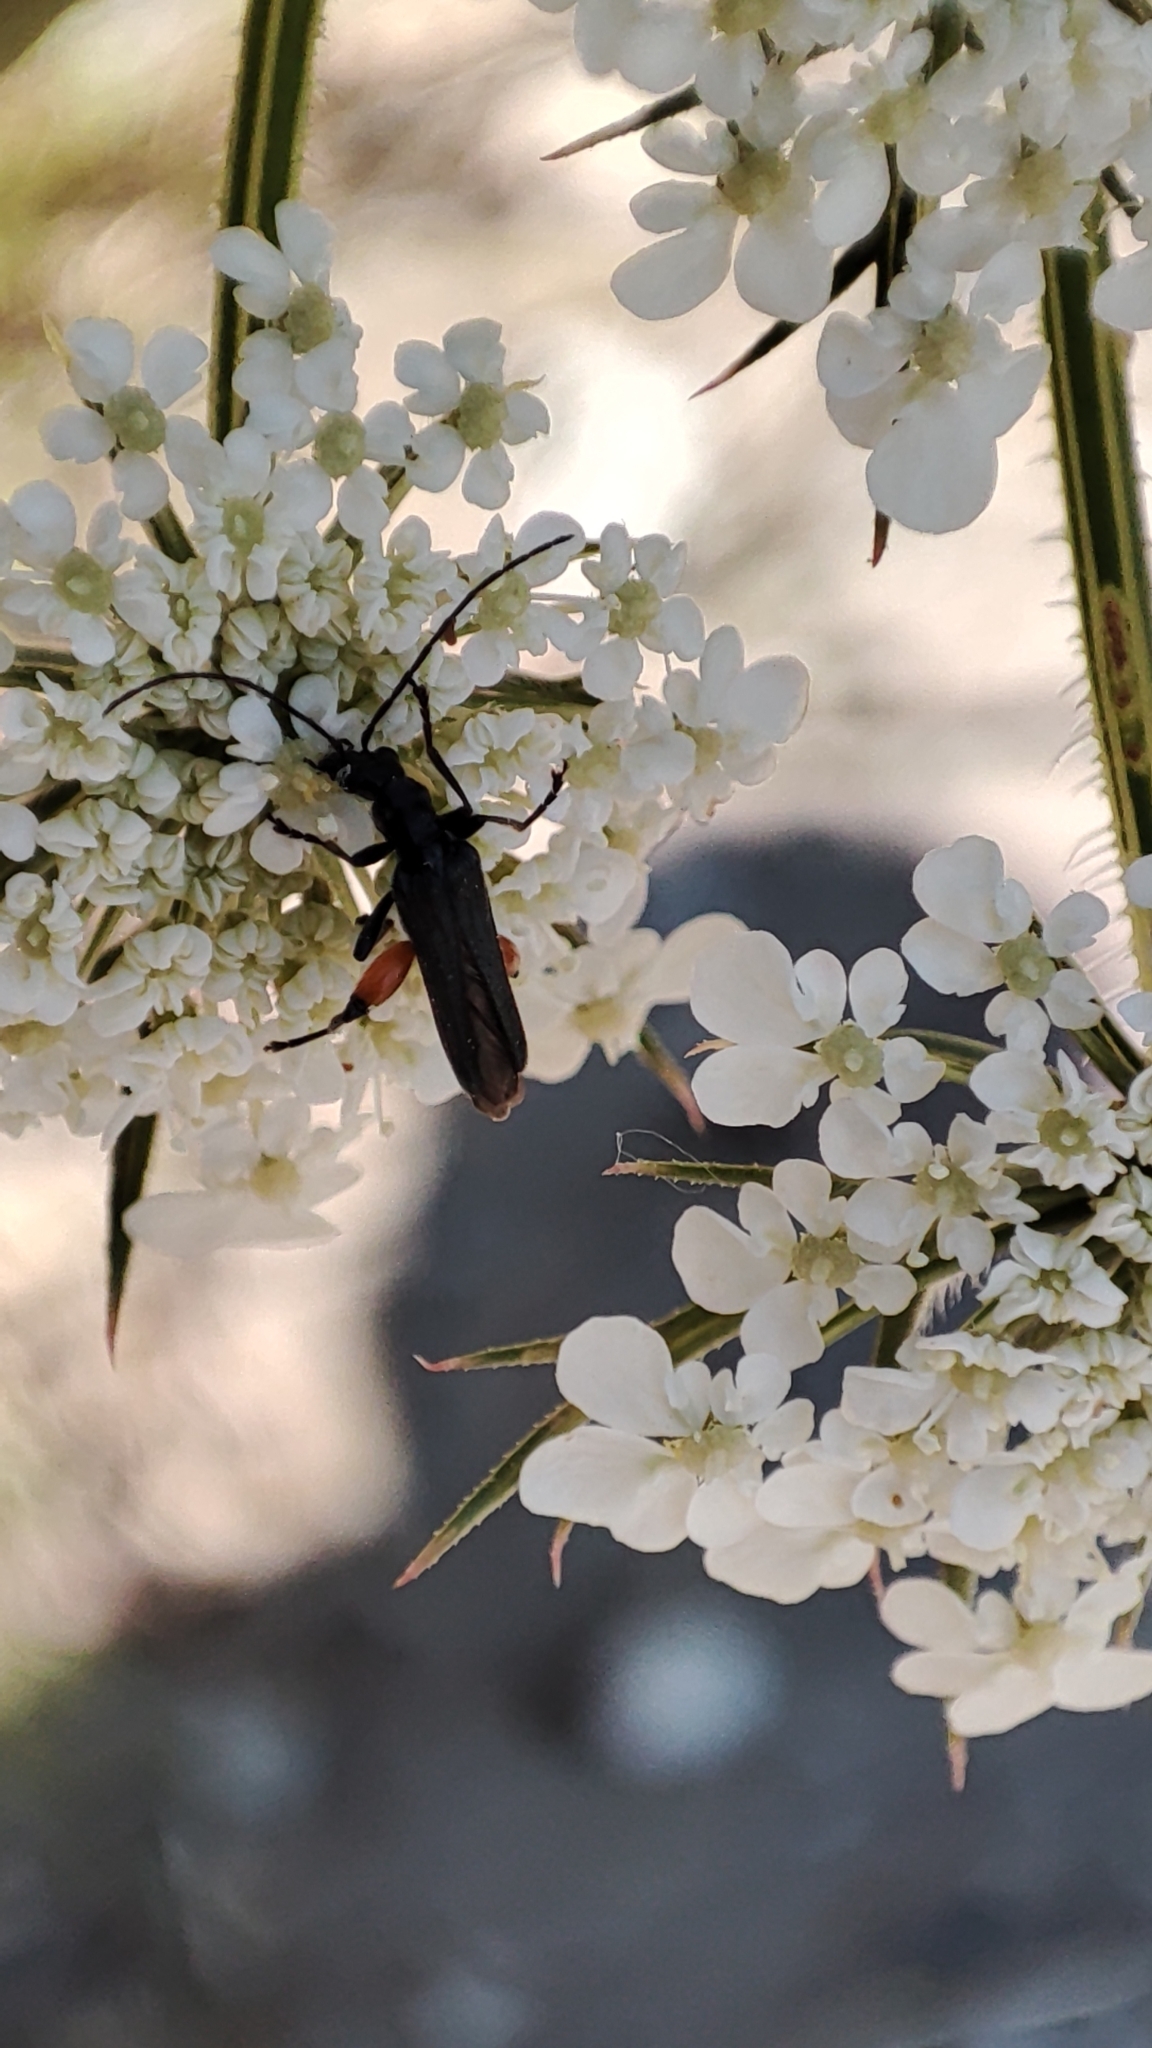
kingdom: Animalia
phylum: Arthropoda
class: Insecta
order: Coleoptera
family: Oedemeridae
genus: Oedemera
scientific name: Oedemera rufofemorata
